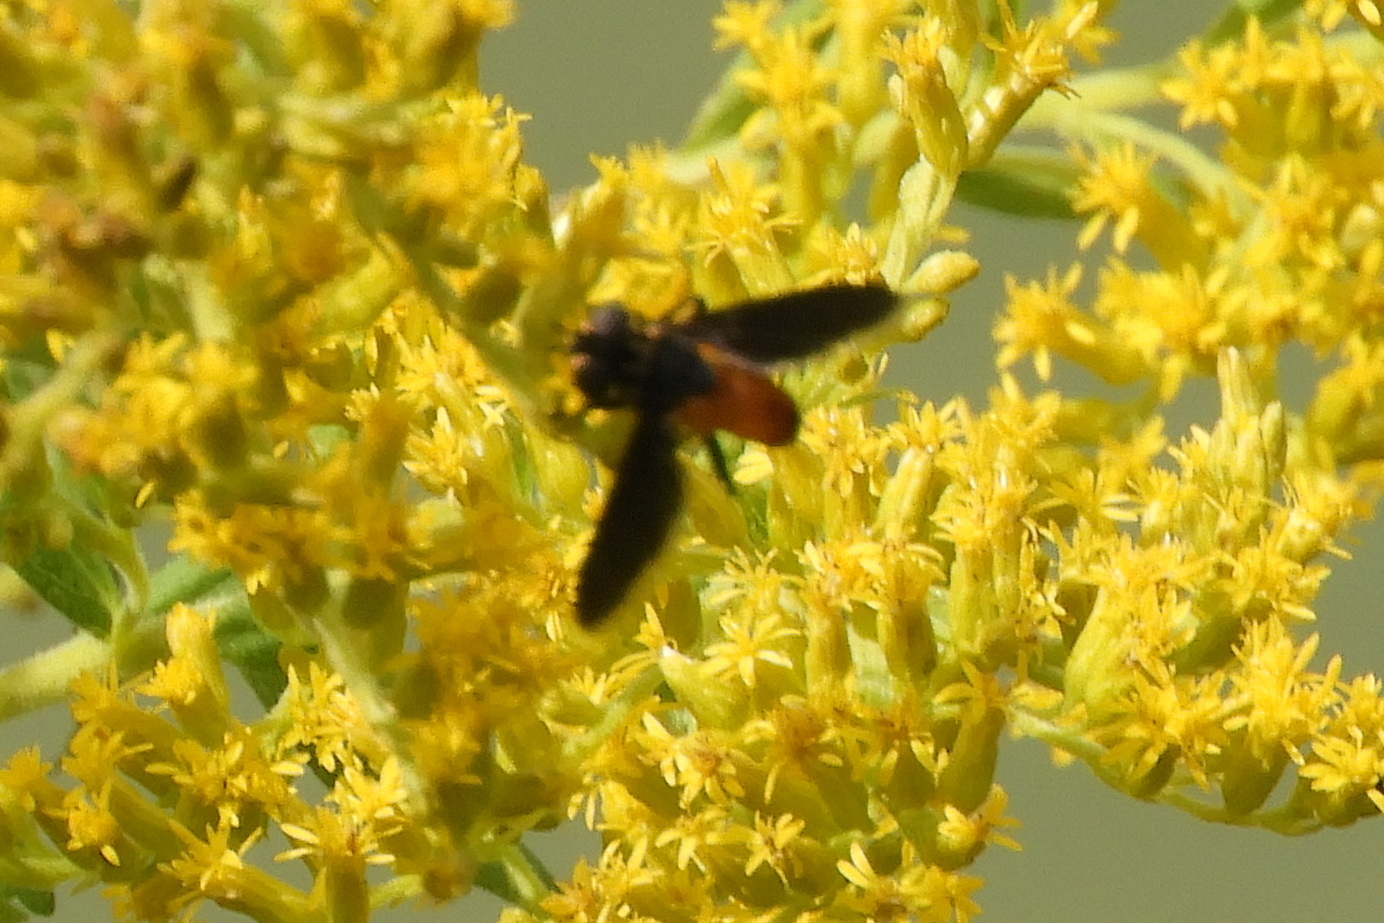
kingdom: Animalia
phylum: Arthropoda
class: Insecta
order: Diptera
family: Tachinidae
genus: Trichopoda
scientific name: Trichopoda pennipes
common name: Tachinid fly
